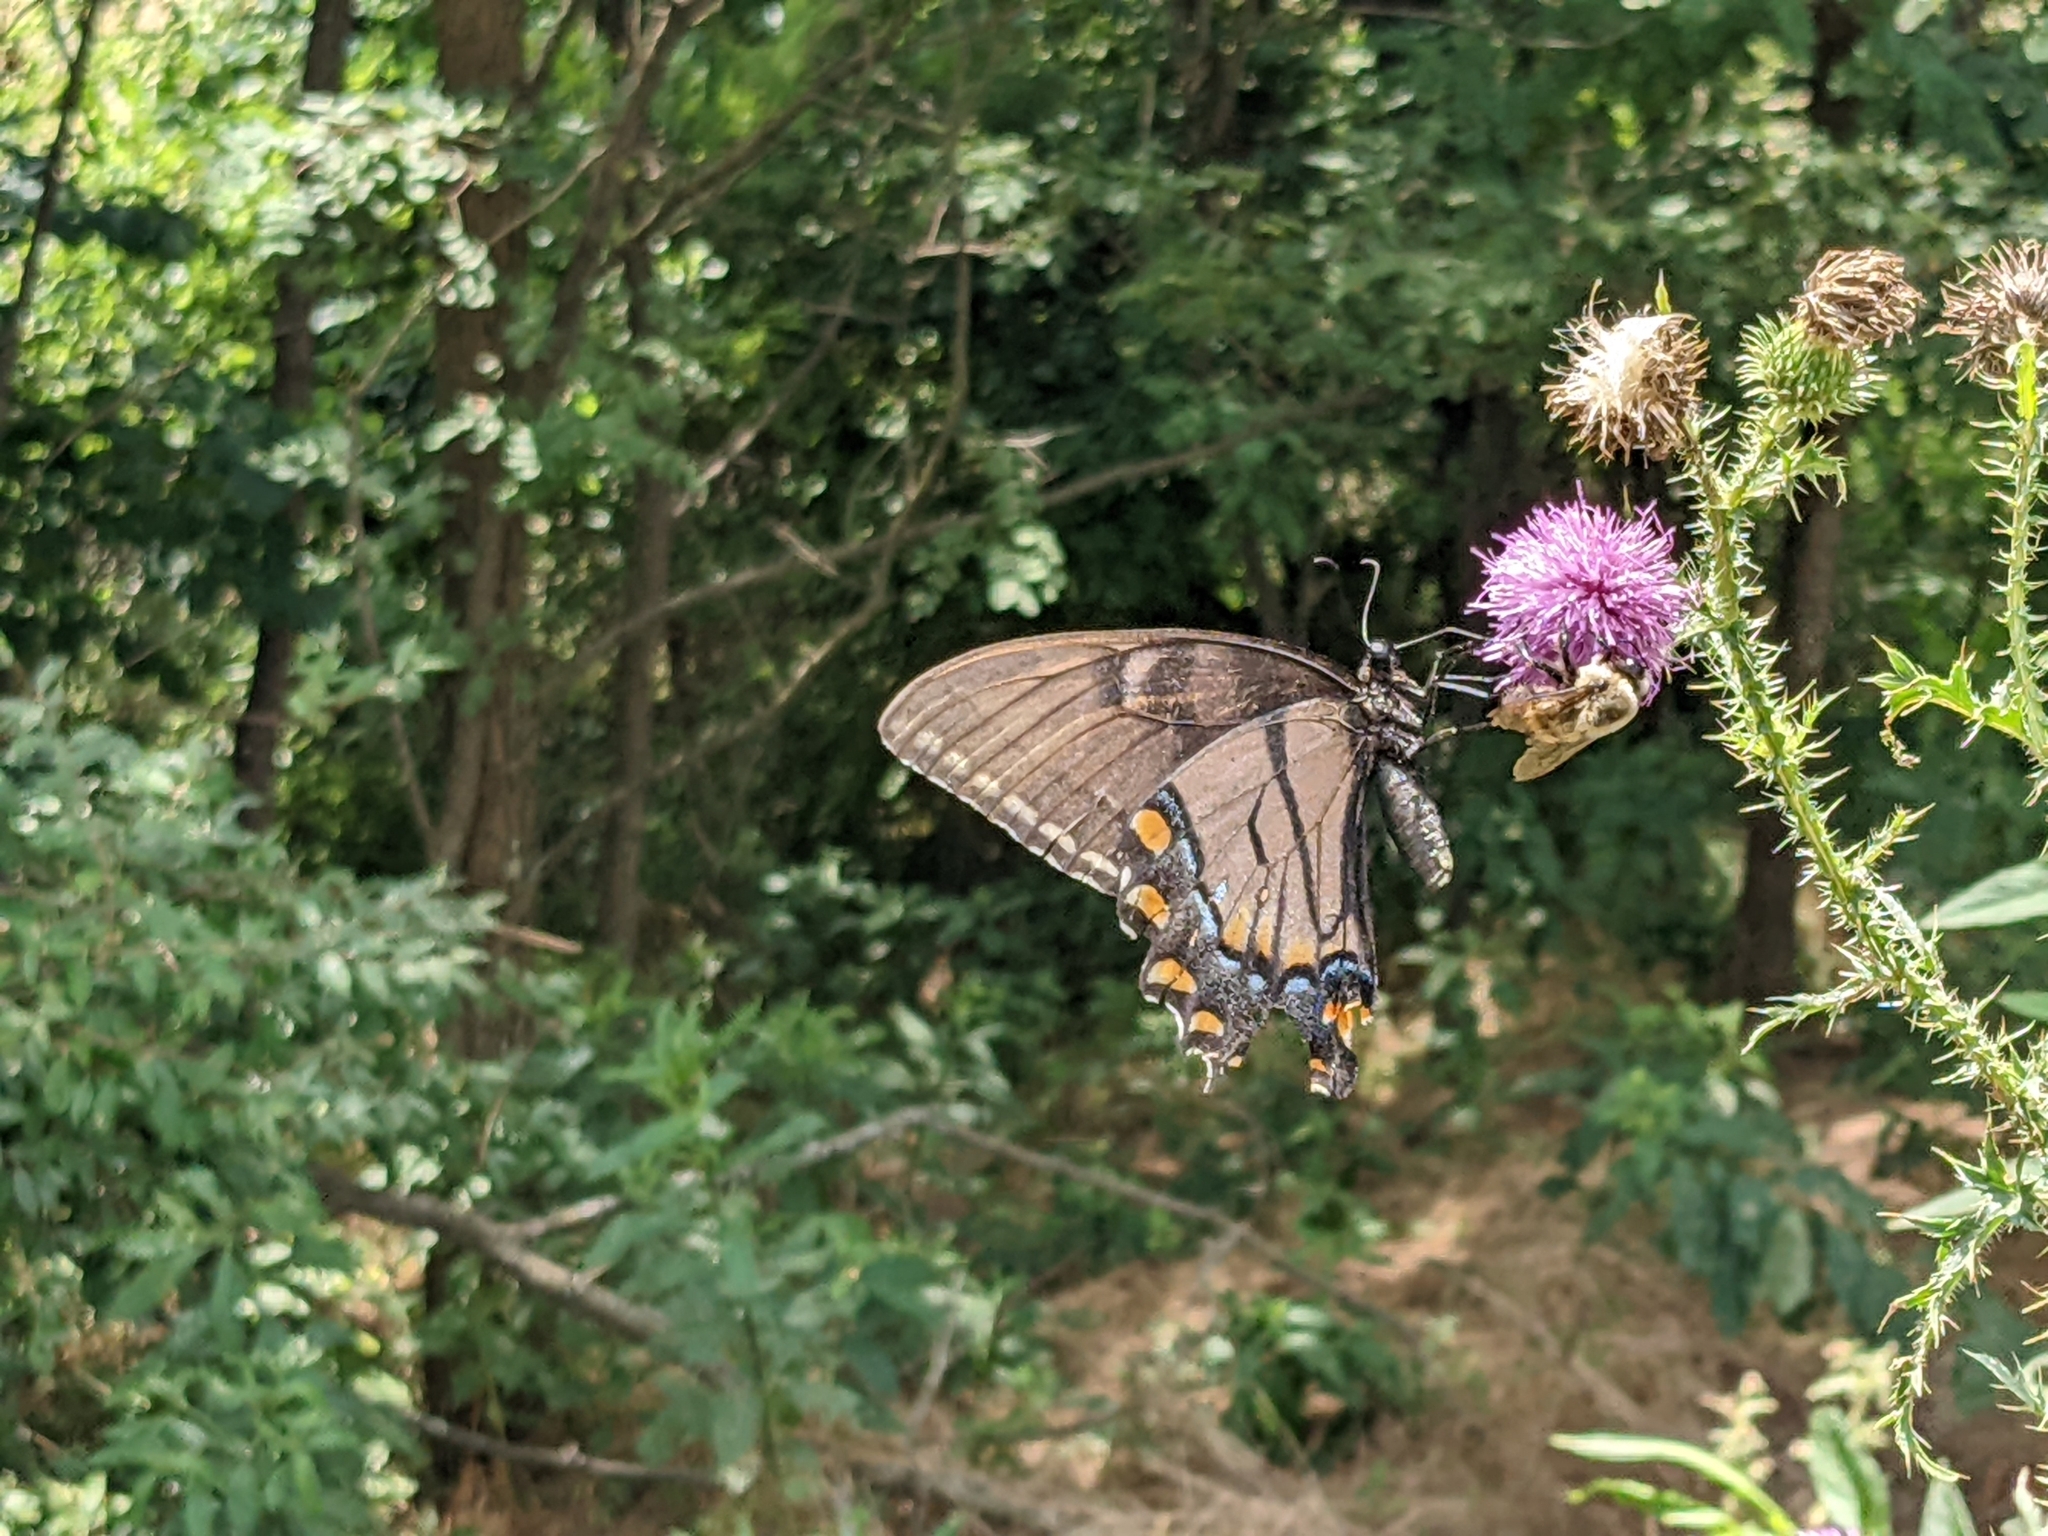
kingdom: Animalia
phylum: Arthropoda
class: Insecta
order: Lepidoptera
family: Papilionidae
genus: Papilio
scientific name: Papilio glaucus
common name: Tiger swallowtail
